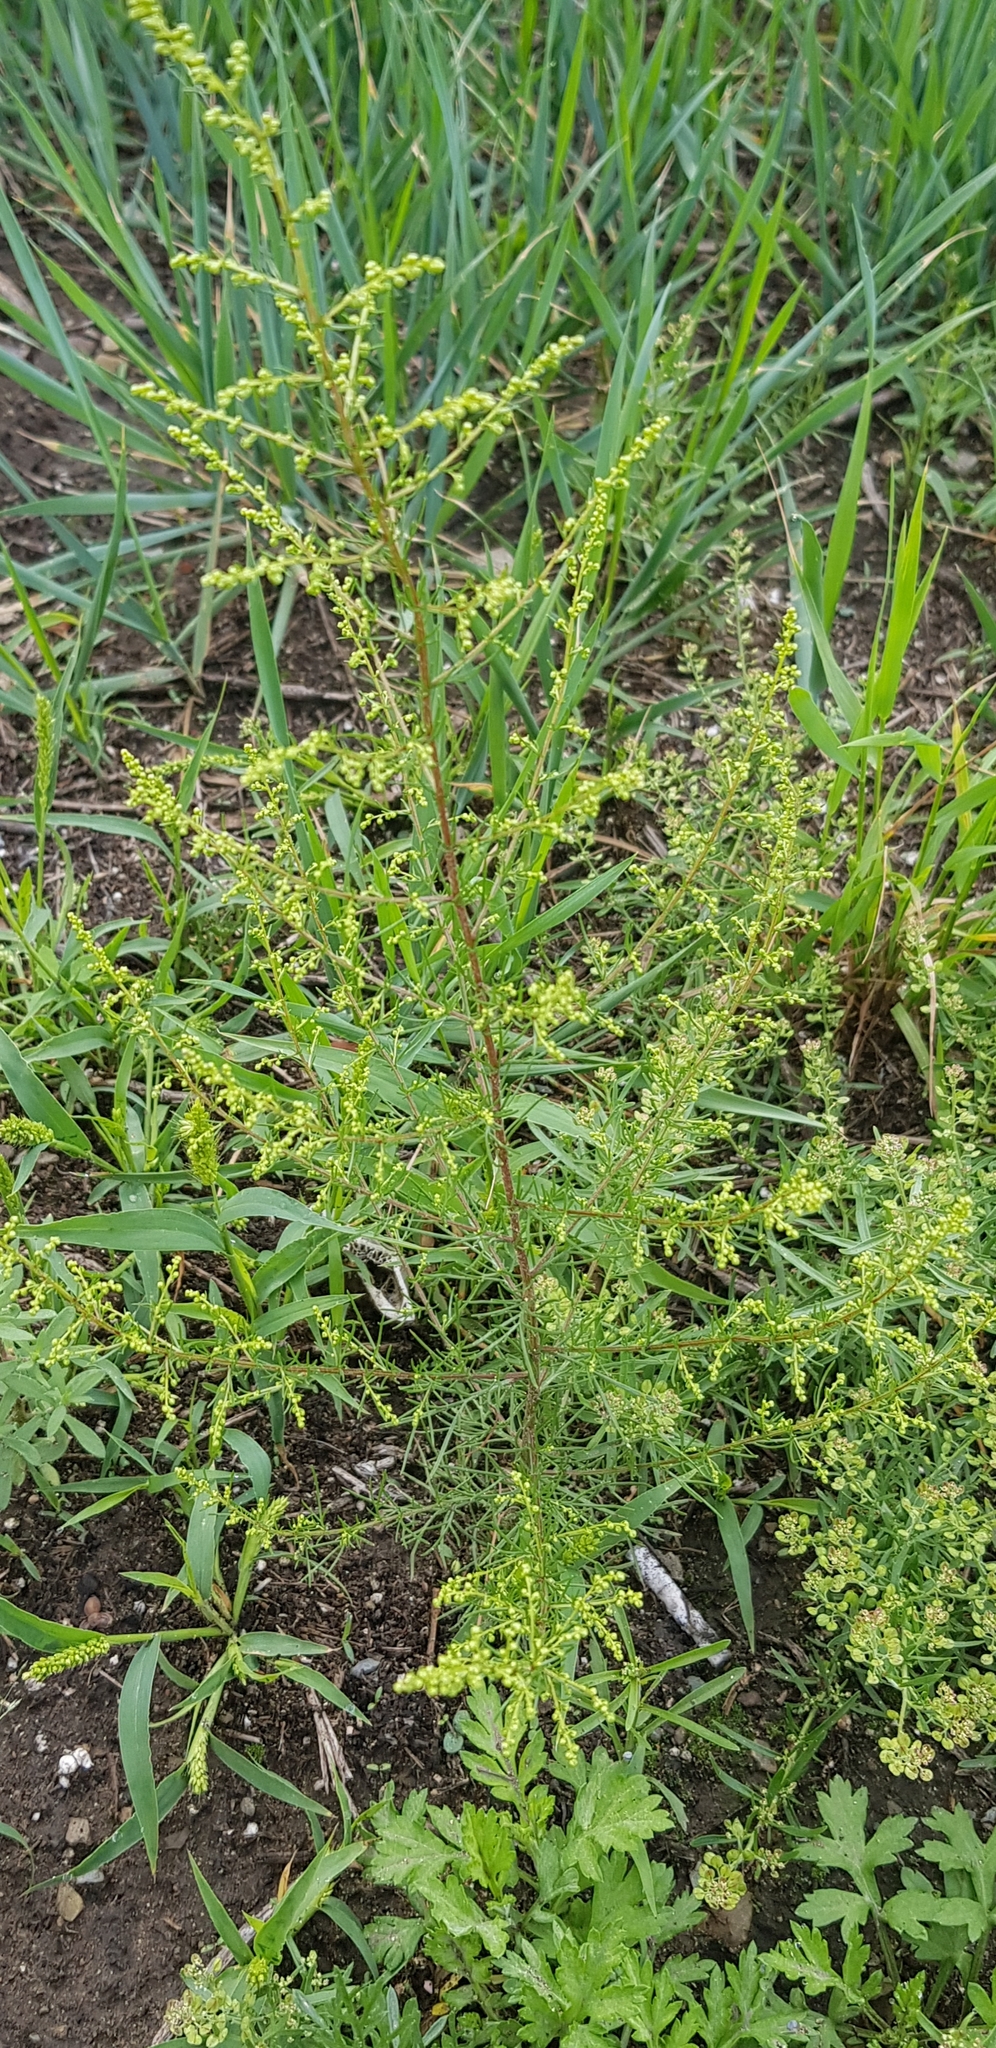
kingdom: Plantae
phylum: Tracheophyta
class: Magnoliopsida
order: Asterales
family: Asteraceae
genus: Artemisia
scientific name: Artemisia pubescens
